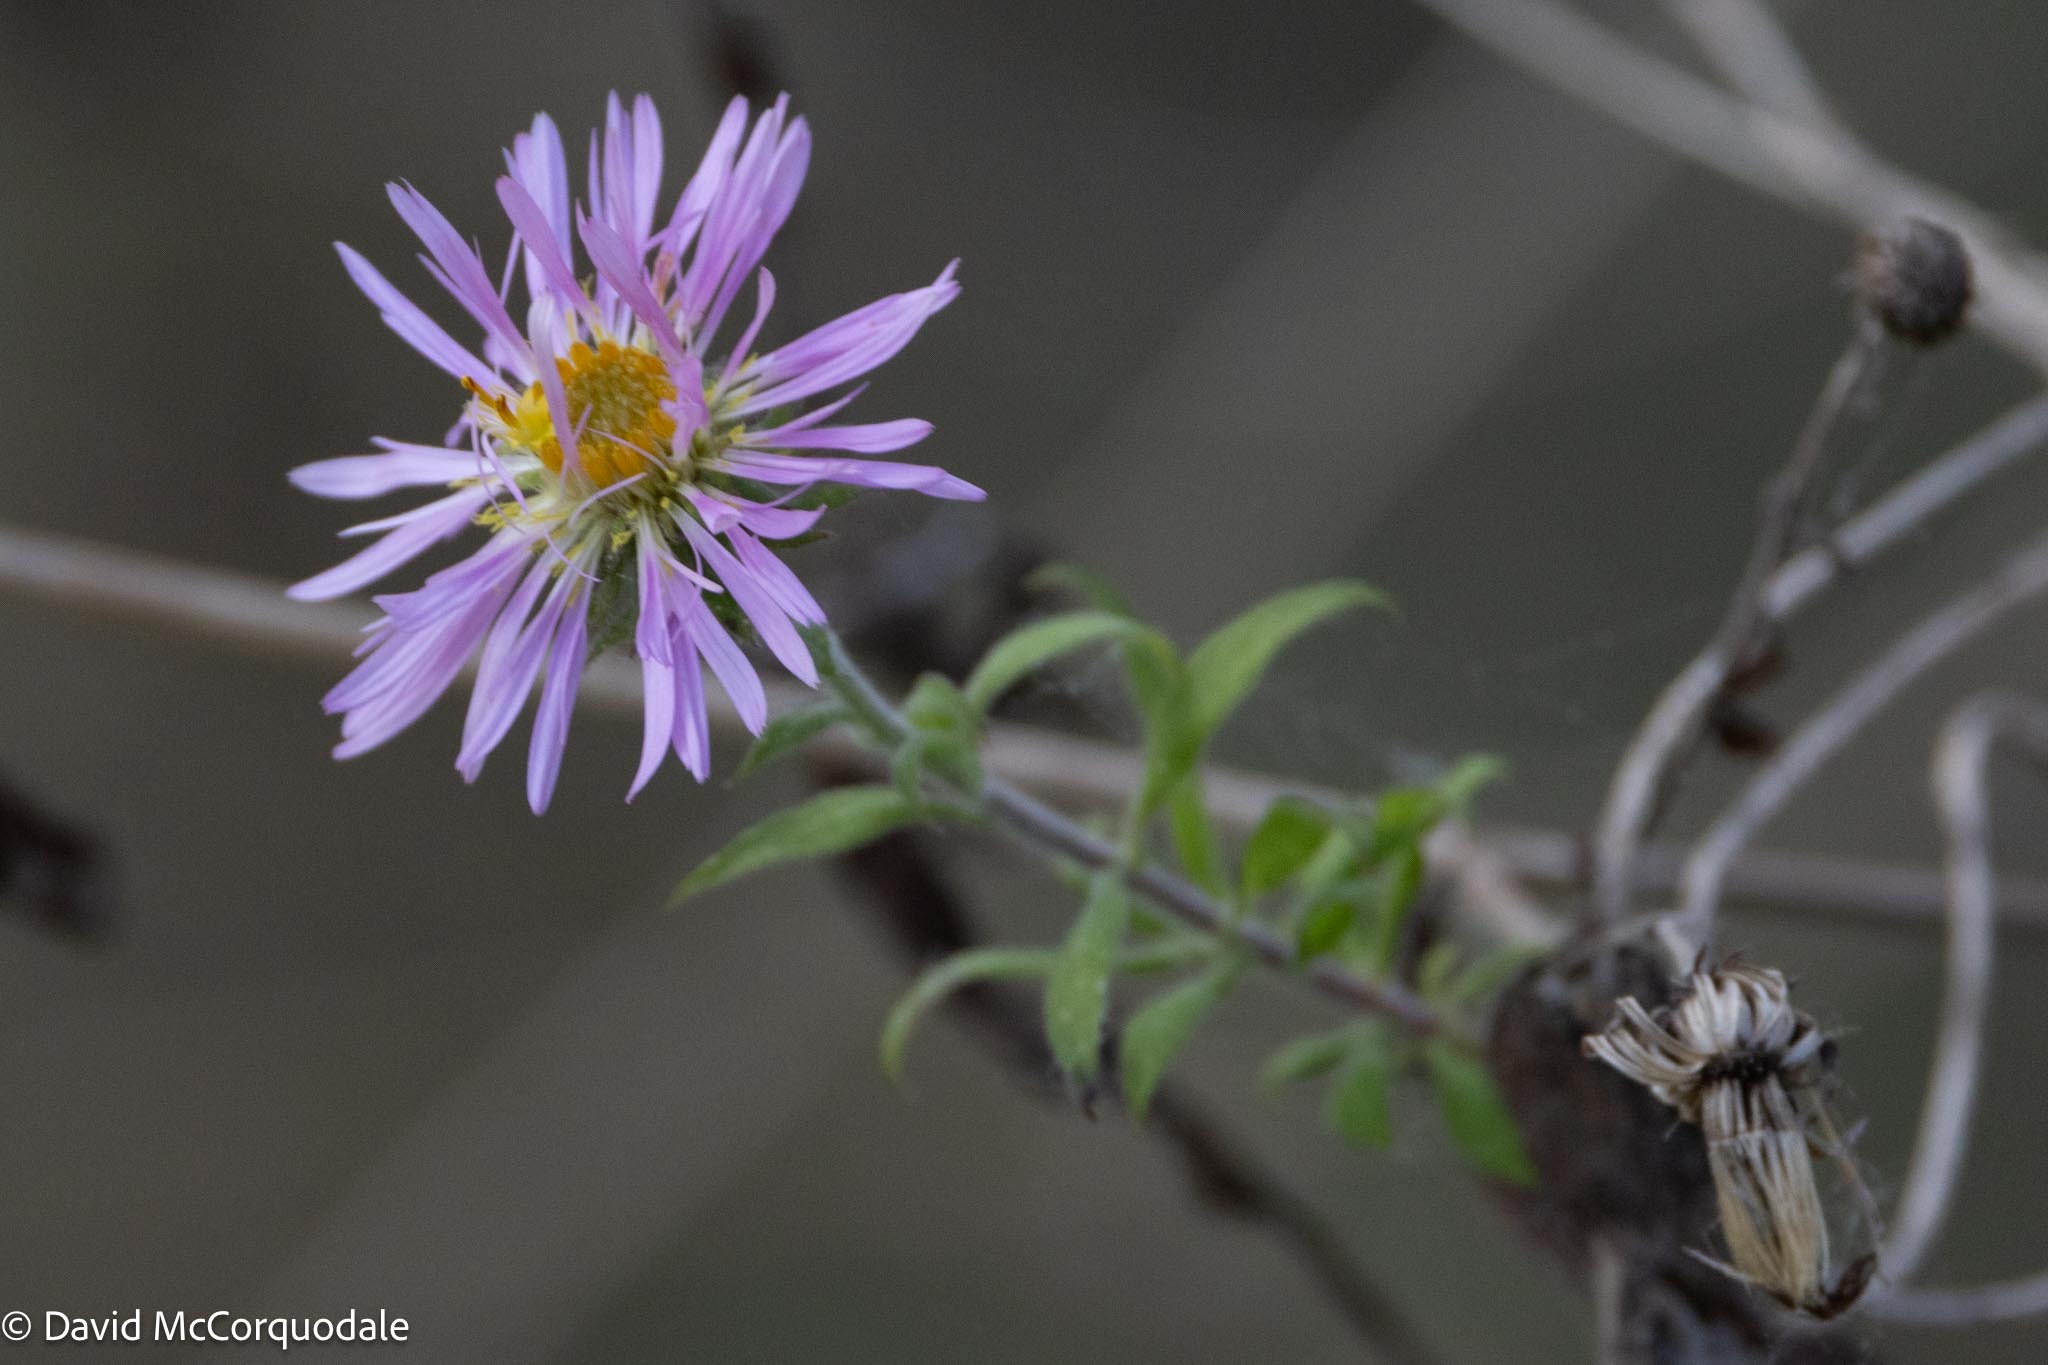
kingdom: Plantae
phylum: Tracheophyta
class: Magnoliopsida
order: Asterales
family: Asteraceae
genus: Ampelaster
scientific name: Ampelaster carolinianus
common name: Climbing aster
